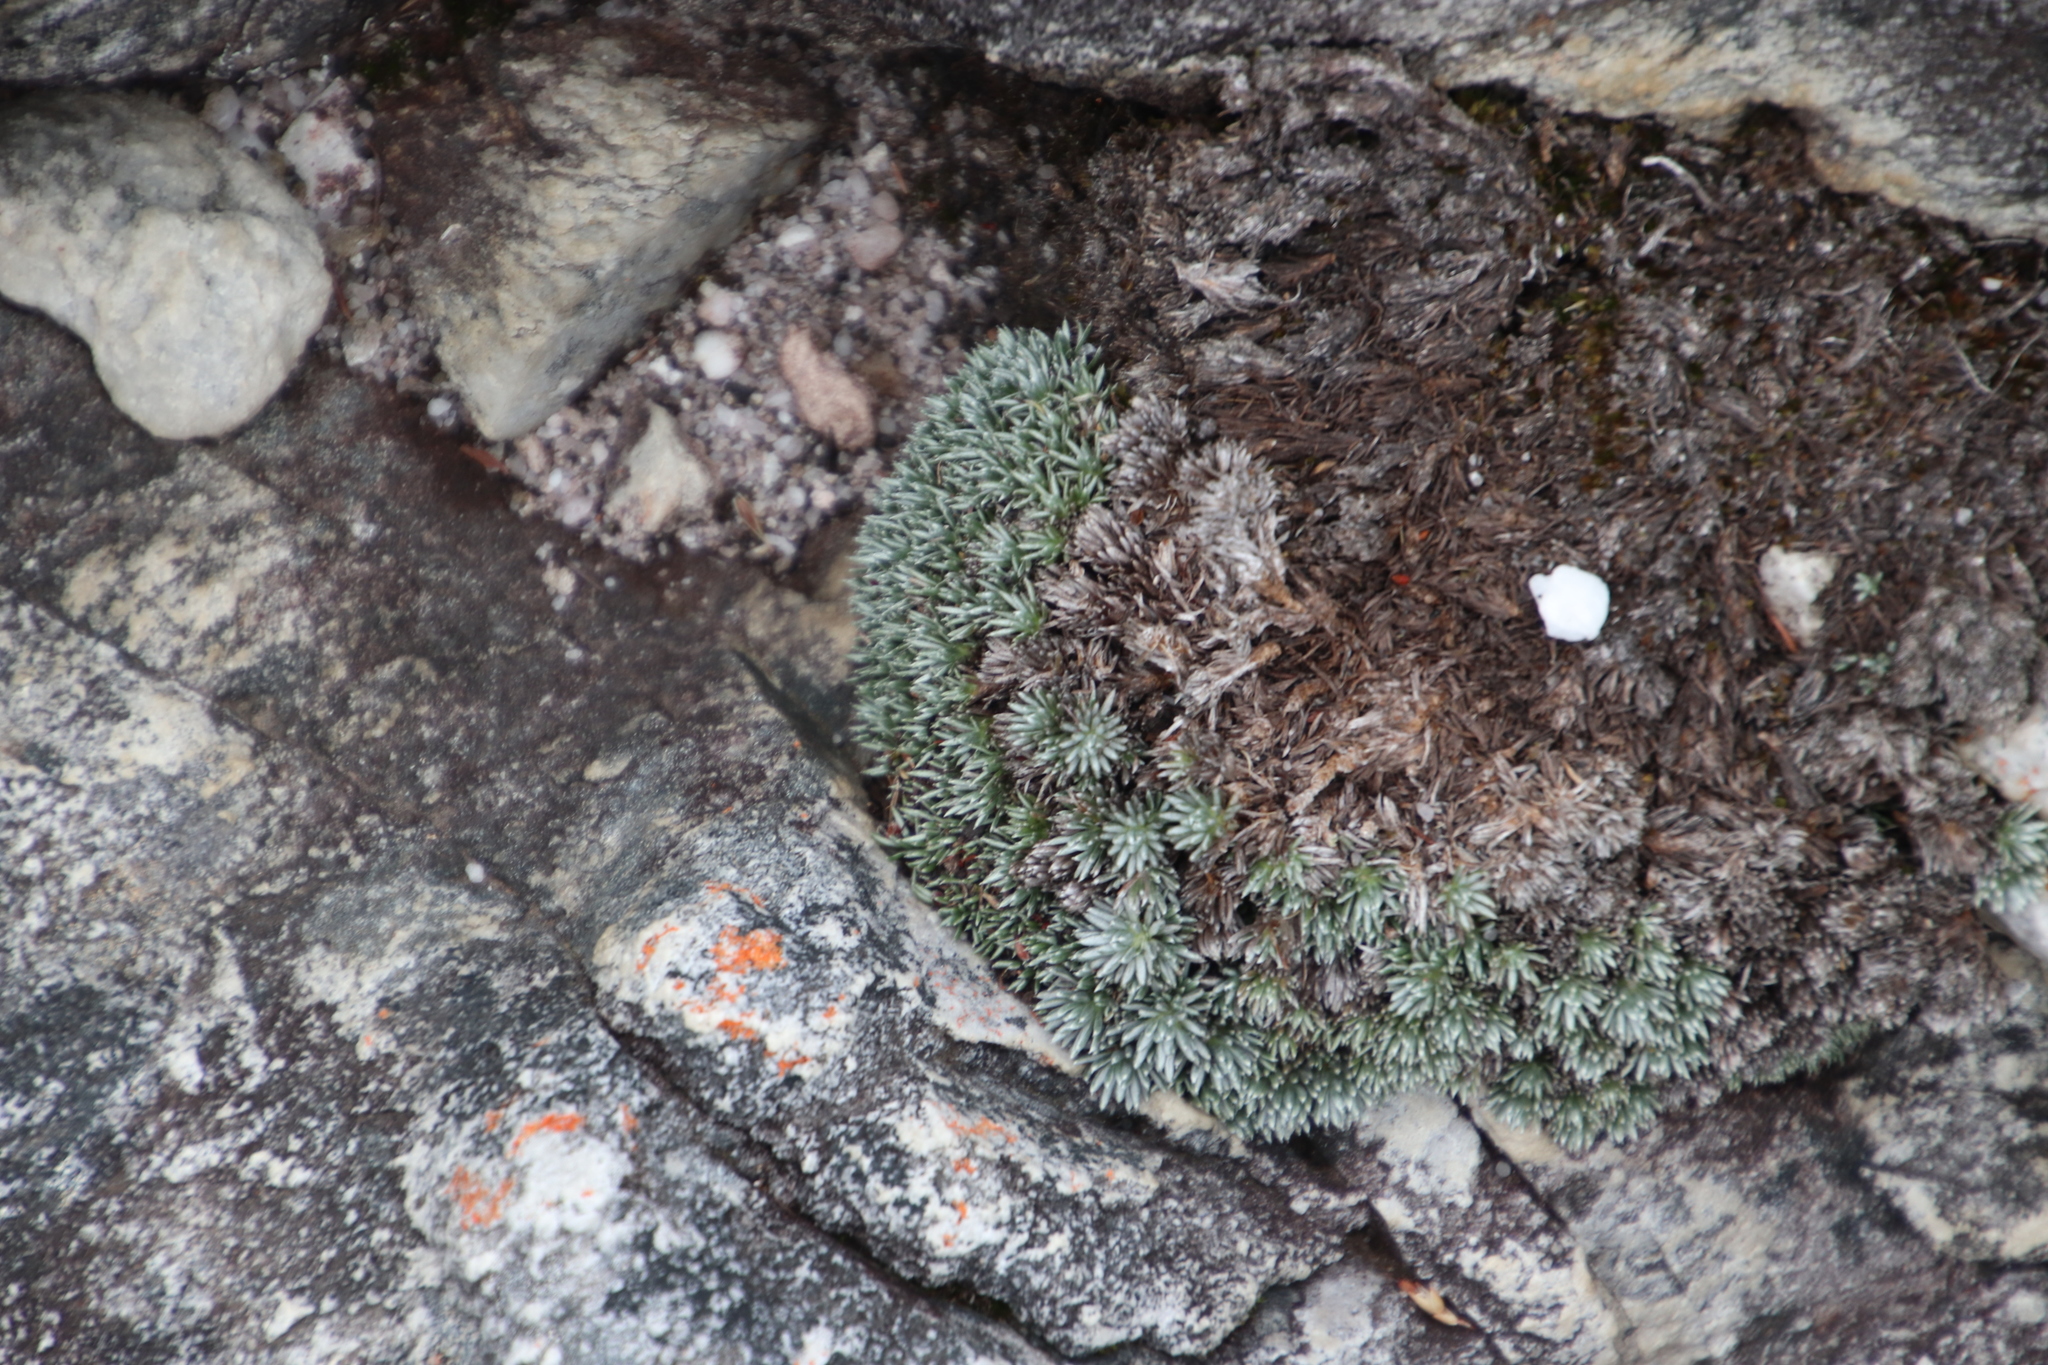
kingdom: Plantae
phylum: Tracheophyta
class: Magnoliopsida
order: Asterales
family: Asteraceae
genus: Muscosomorphe
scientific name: Muscosomorphe aretioides
